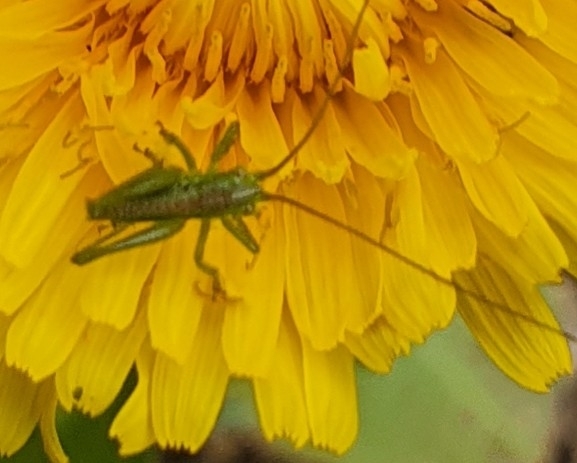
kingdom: Animalia
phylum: Arthropoda
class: Insecta
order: Orthoptera
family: Tettigoniidae
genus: Tettigonia
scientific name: Tettigonia viridissima
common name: Great green bush-cricket
